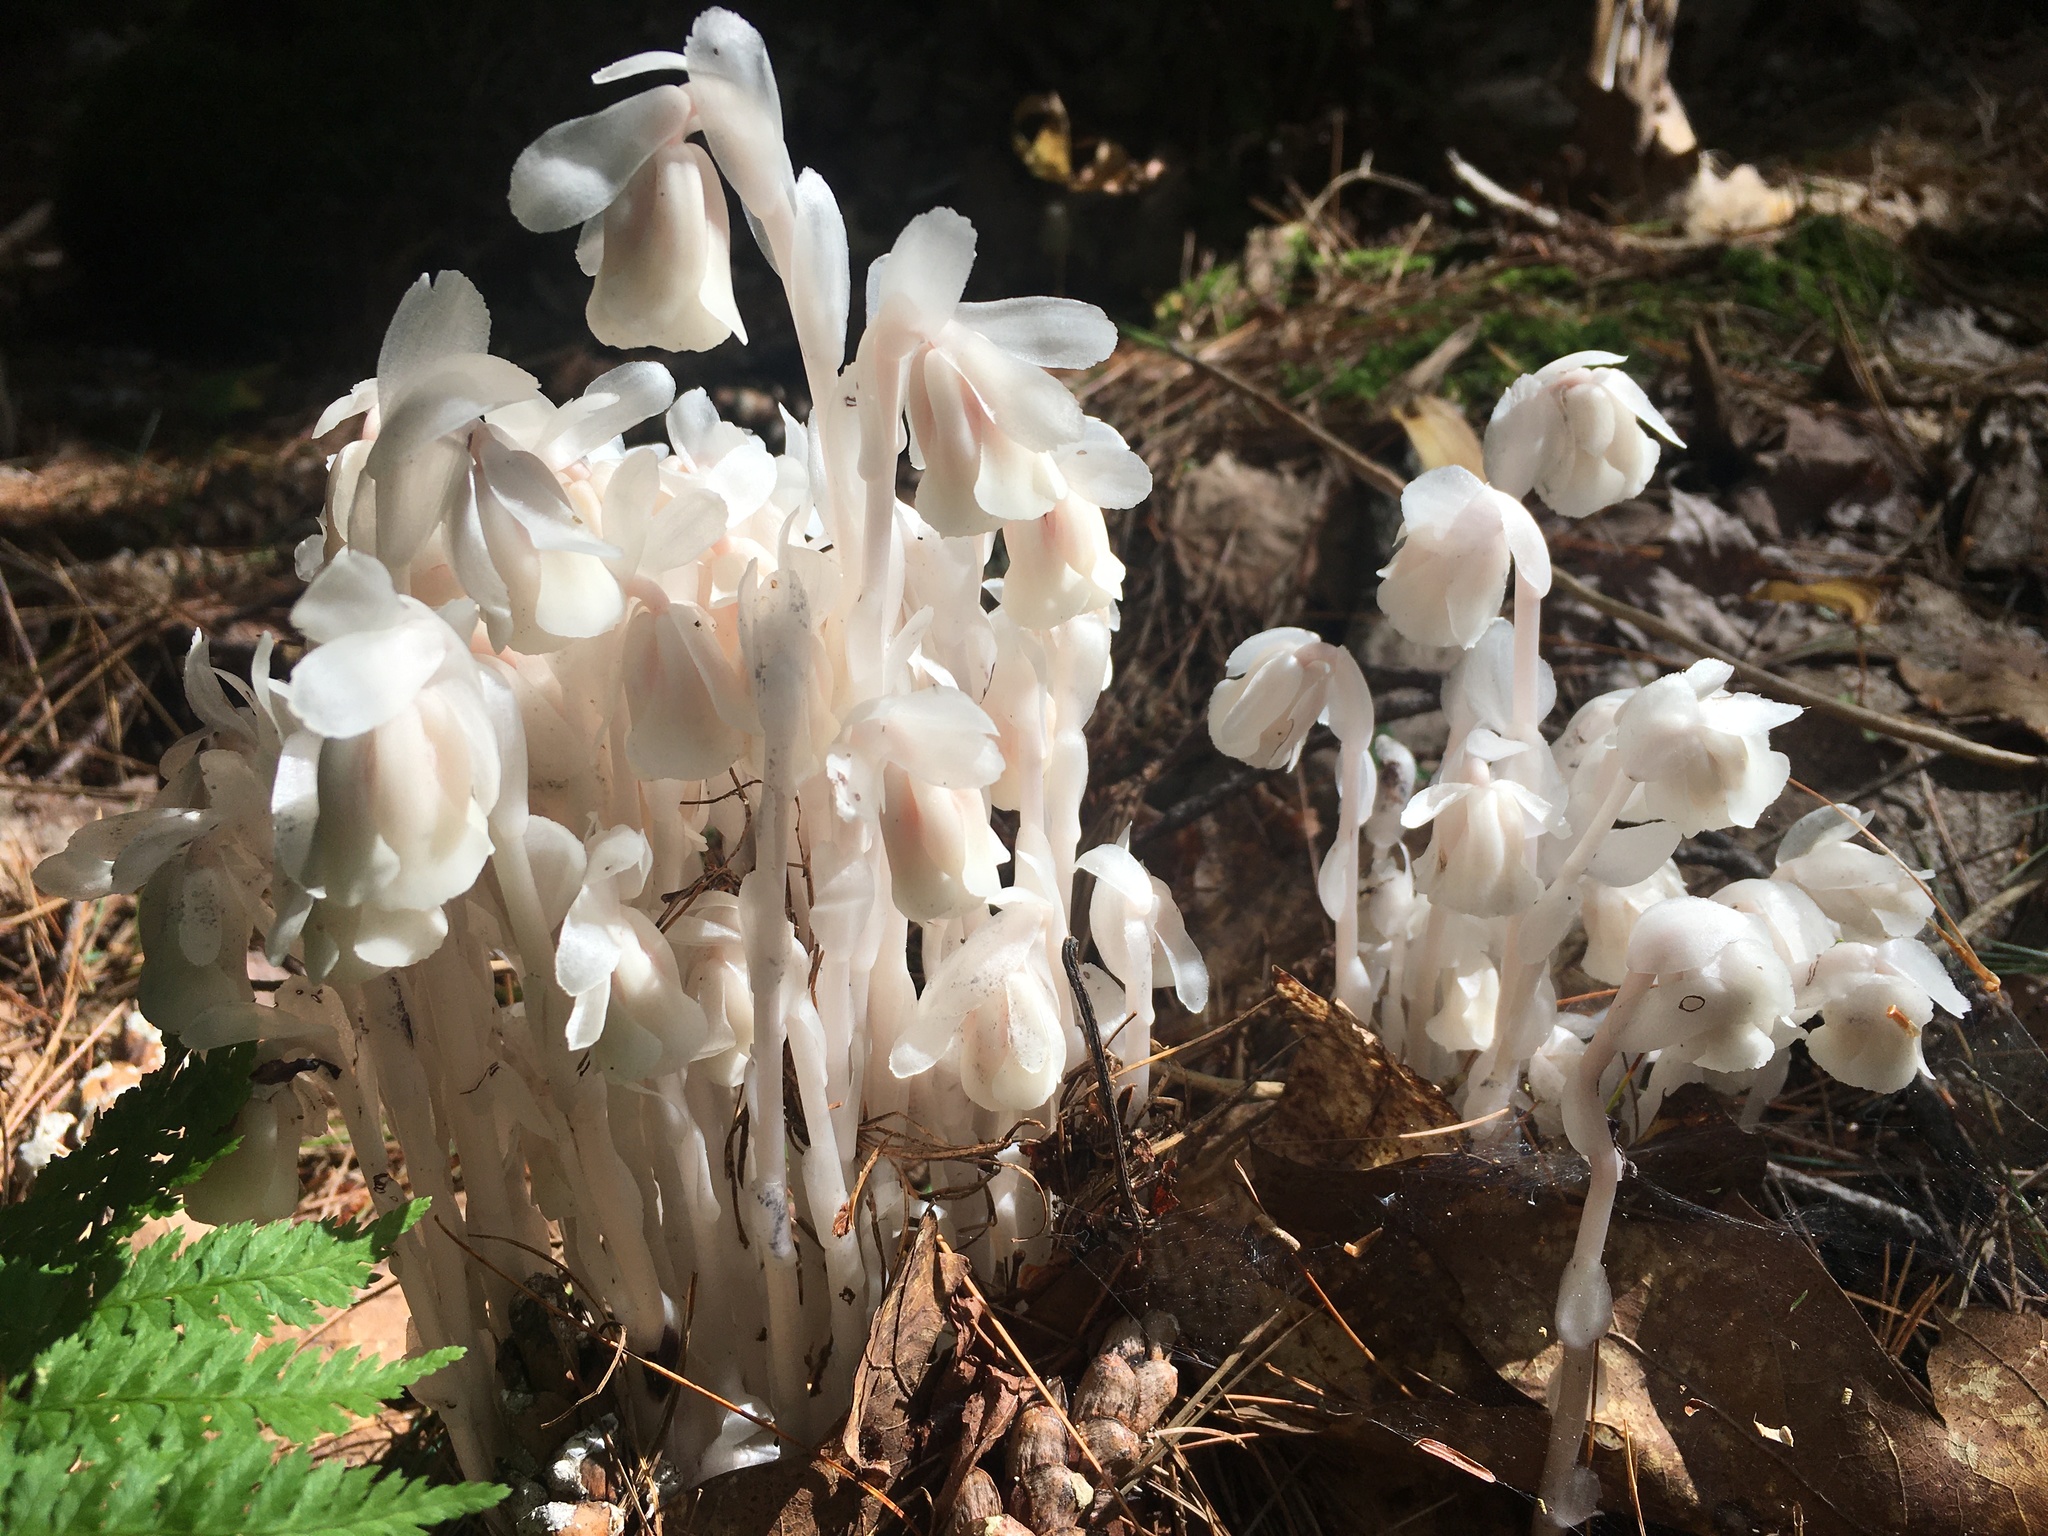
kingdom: Plantae
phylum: Tracheophyta
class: Magnoliopsida
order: Ericales
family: Ericaceae
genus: Monotropa
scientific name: Monotropa uniflora
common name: Convulsion root
